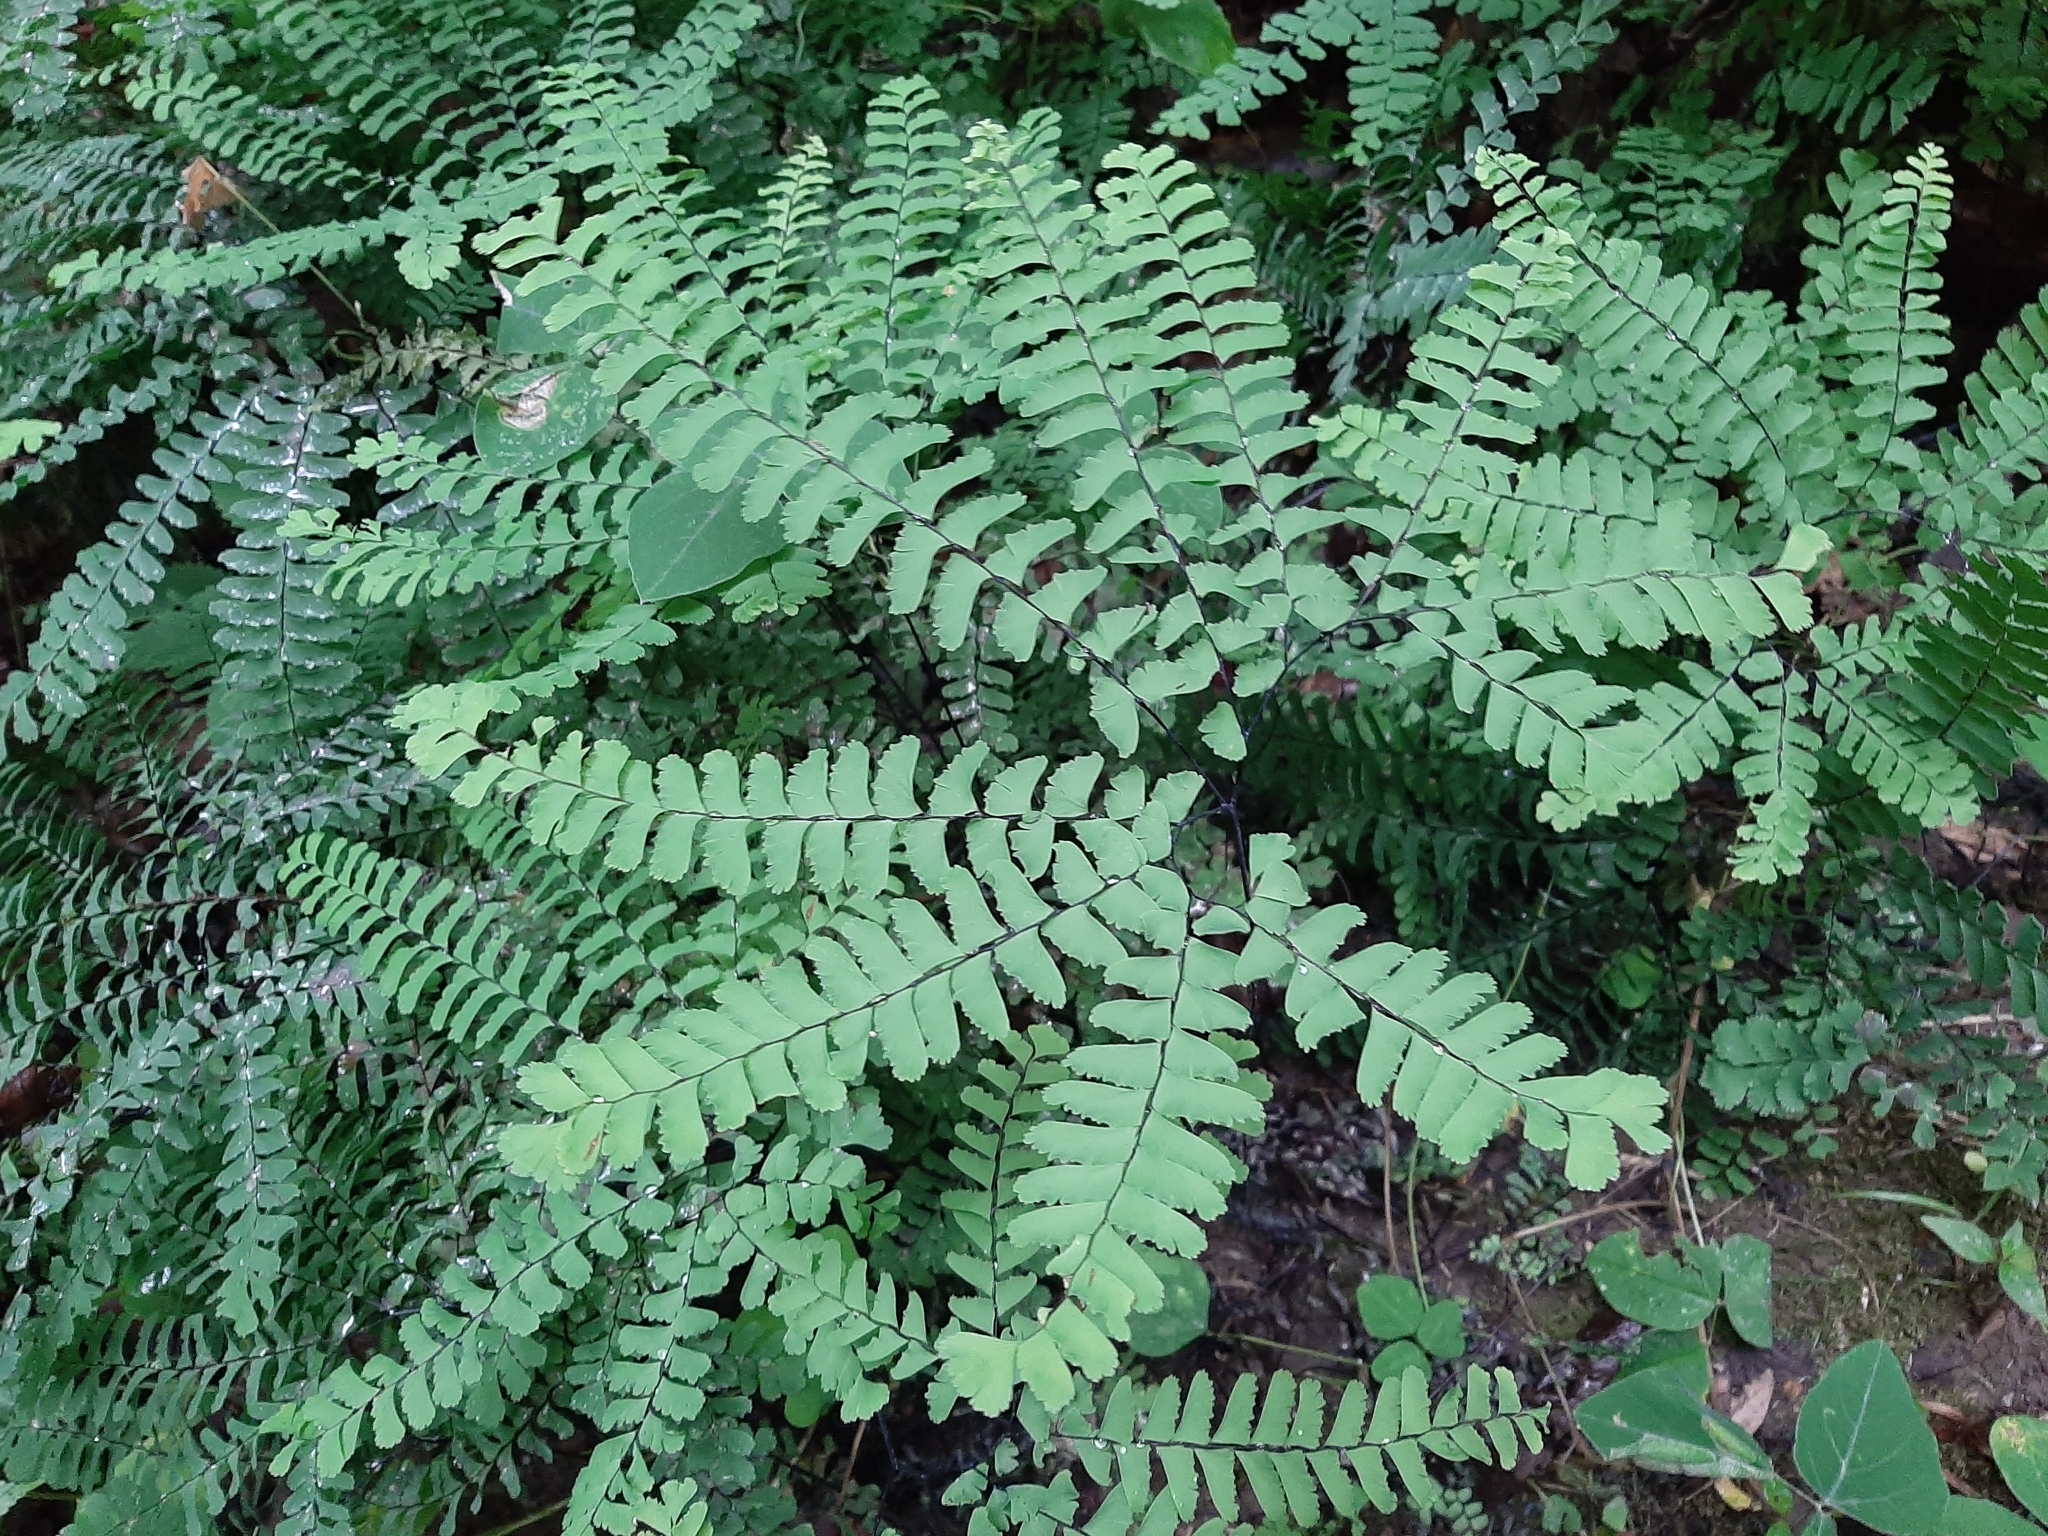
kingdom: Plantae
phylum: Tracheophyta
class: Polypodiopsida
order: Polypodiales
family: Pteridaceae
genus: Adiantum
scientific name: Adiantum pedatum
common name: Five-finger fern
